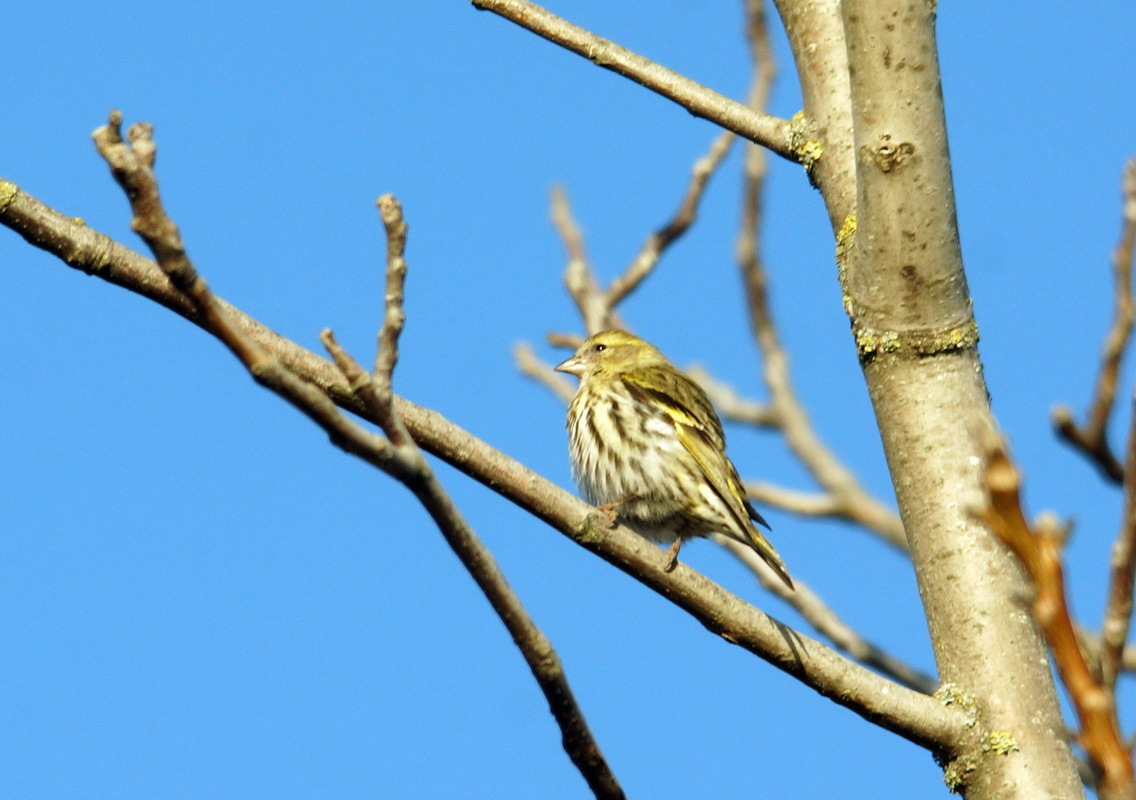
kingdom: Animalia
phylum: Chordata
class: Aves
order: Passeriformes
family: Fringillidae
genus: Spinus
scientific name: Spinus spinus
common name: Eurasian siskin
